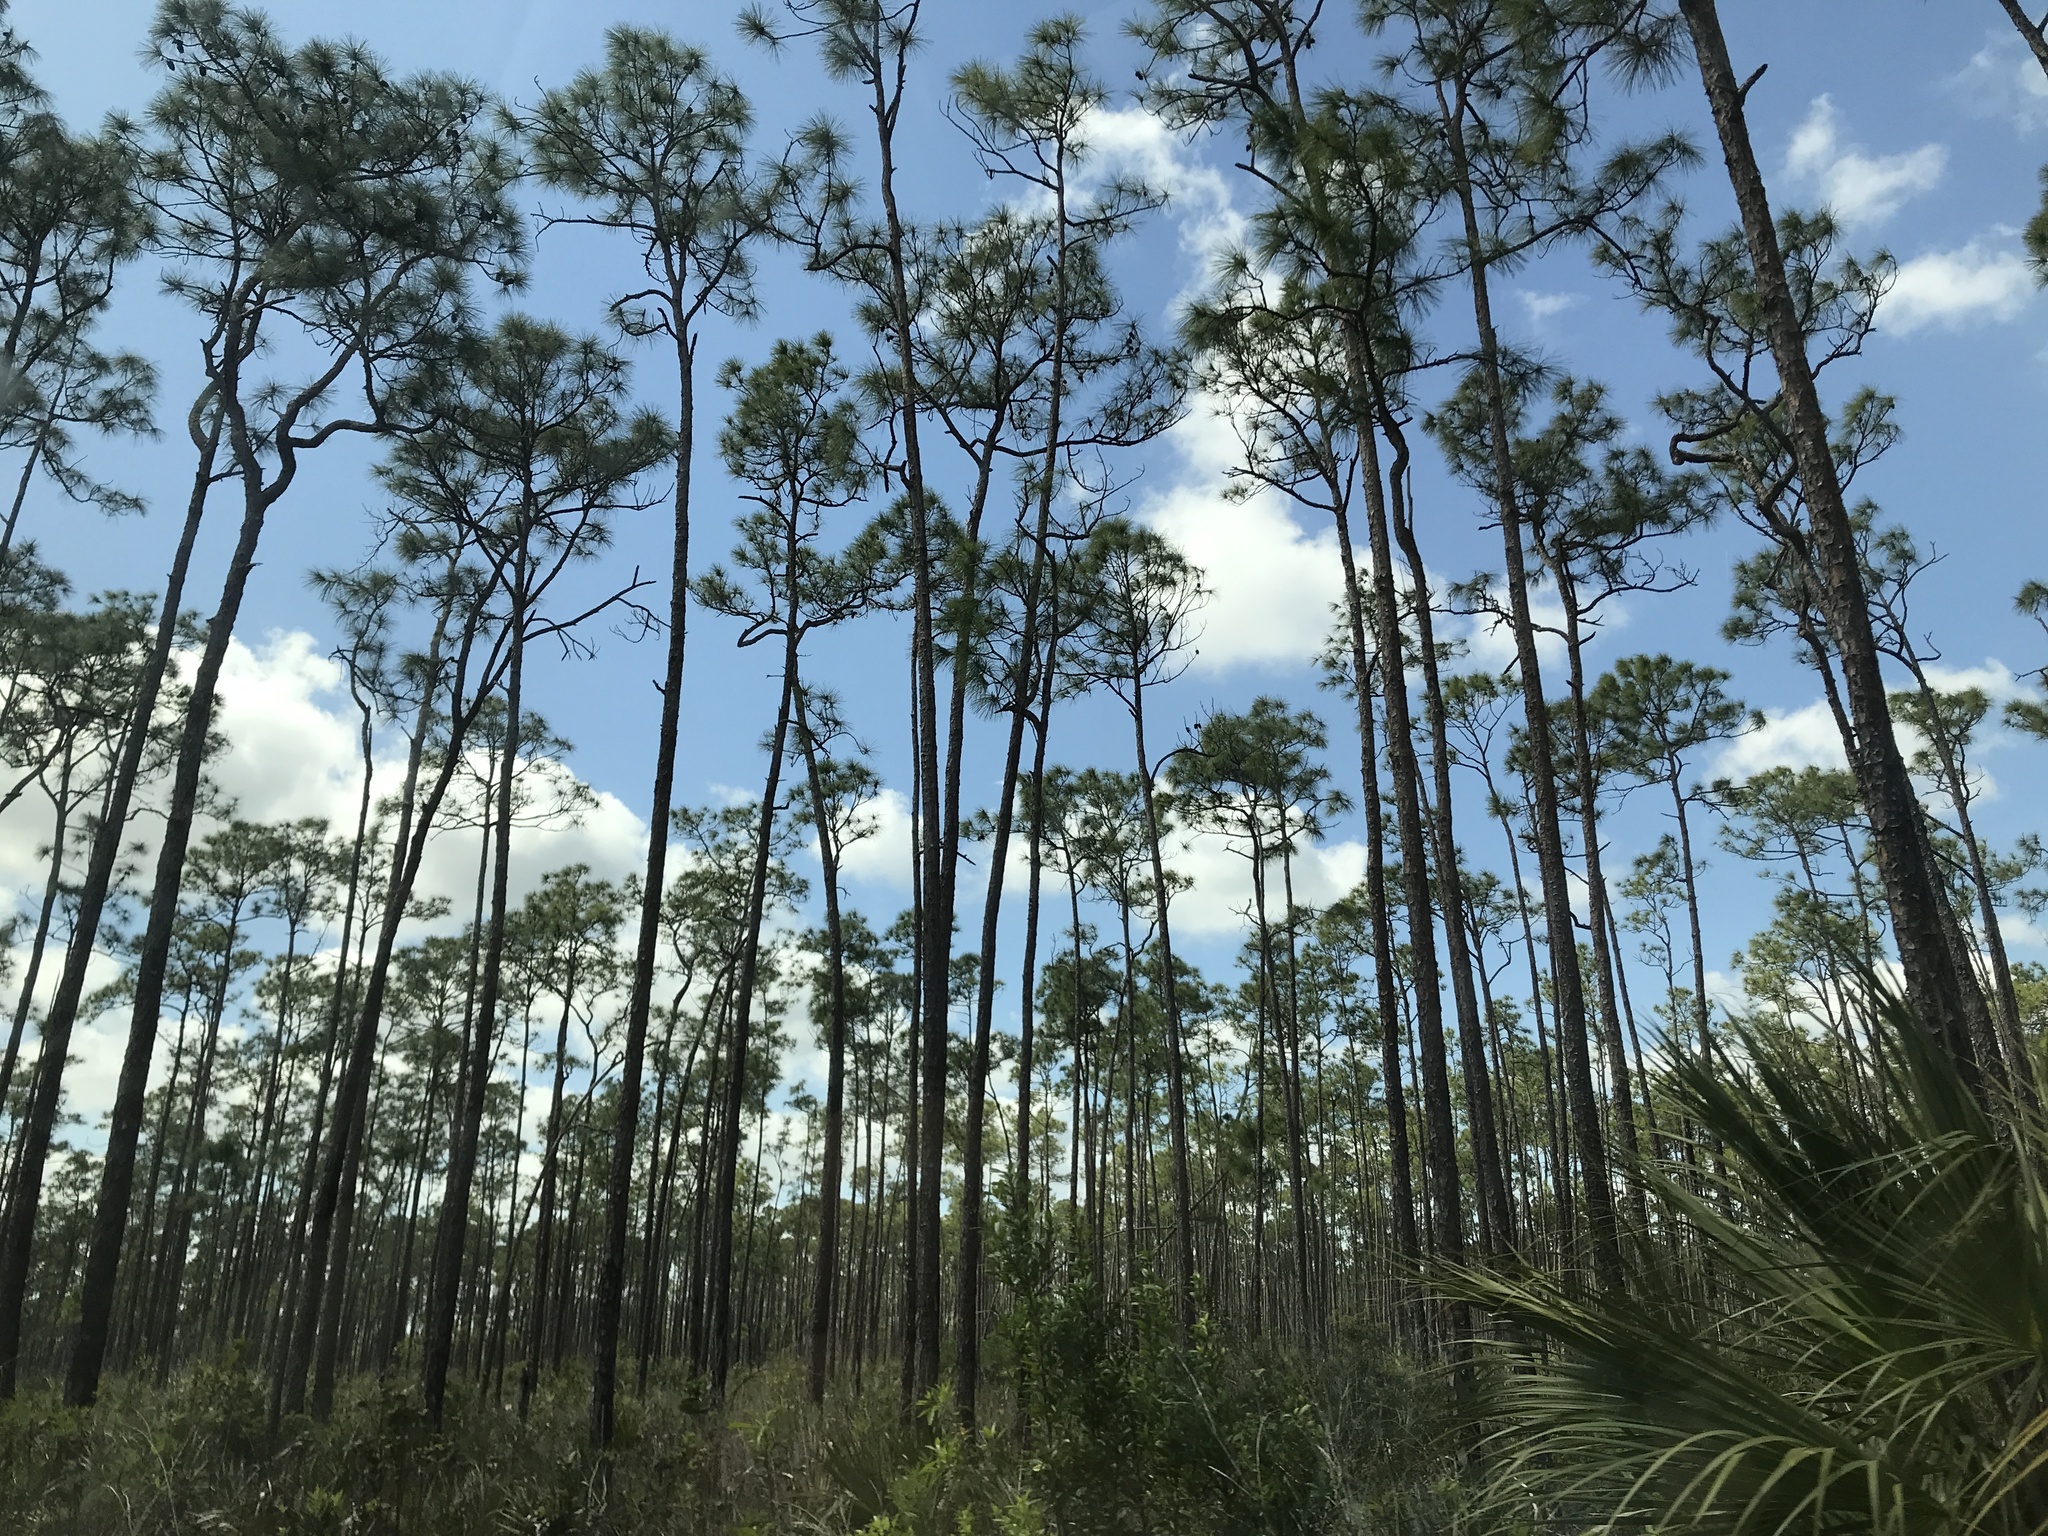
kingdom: Plantae
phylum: Tracheophyta
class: Pinopsida
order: Pinales
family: Pinaceae
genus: Pinus
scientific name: Pinus elliottii
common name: Slash pine
